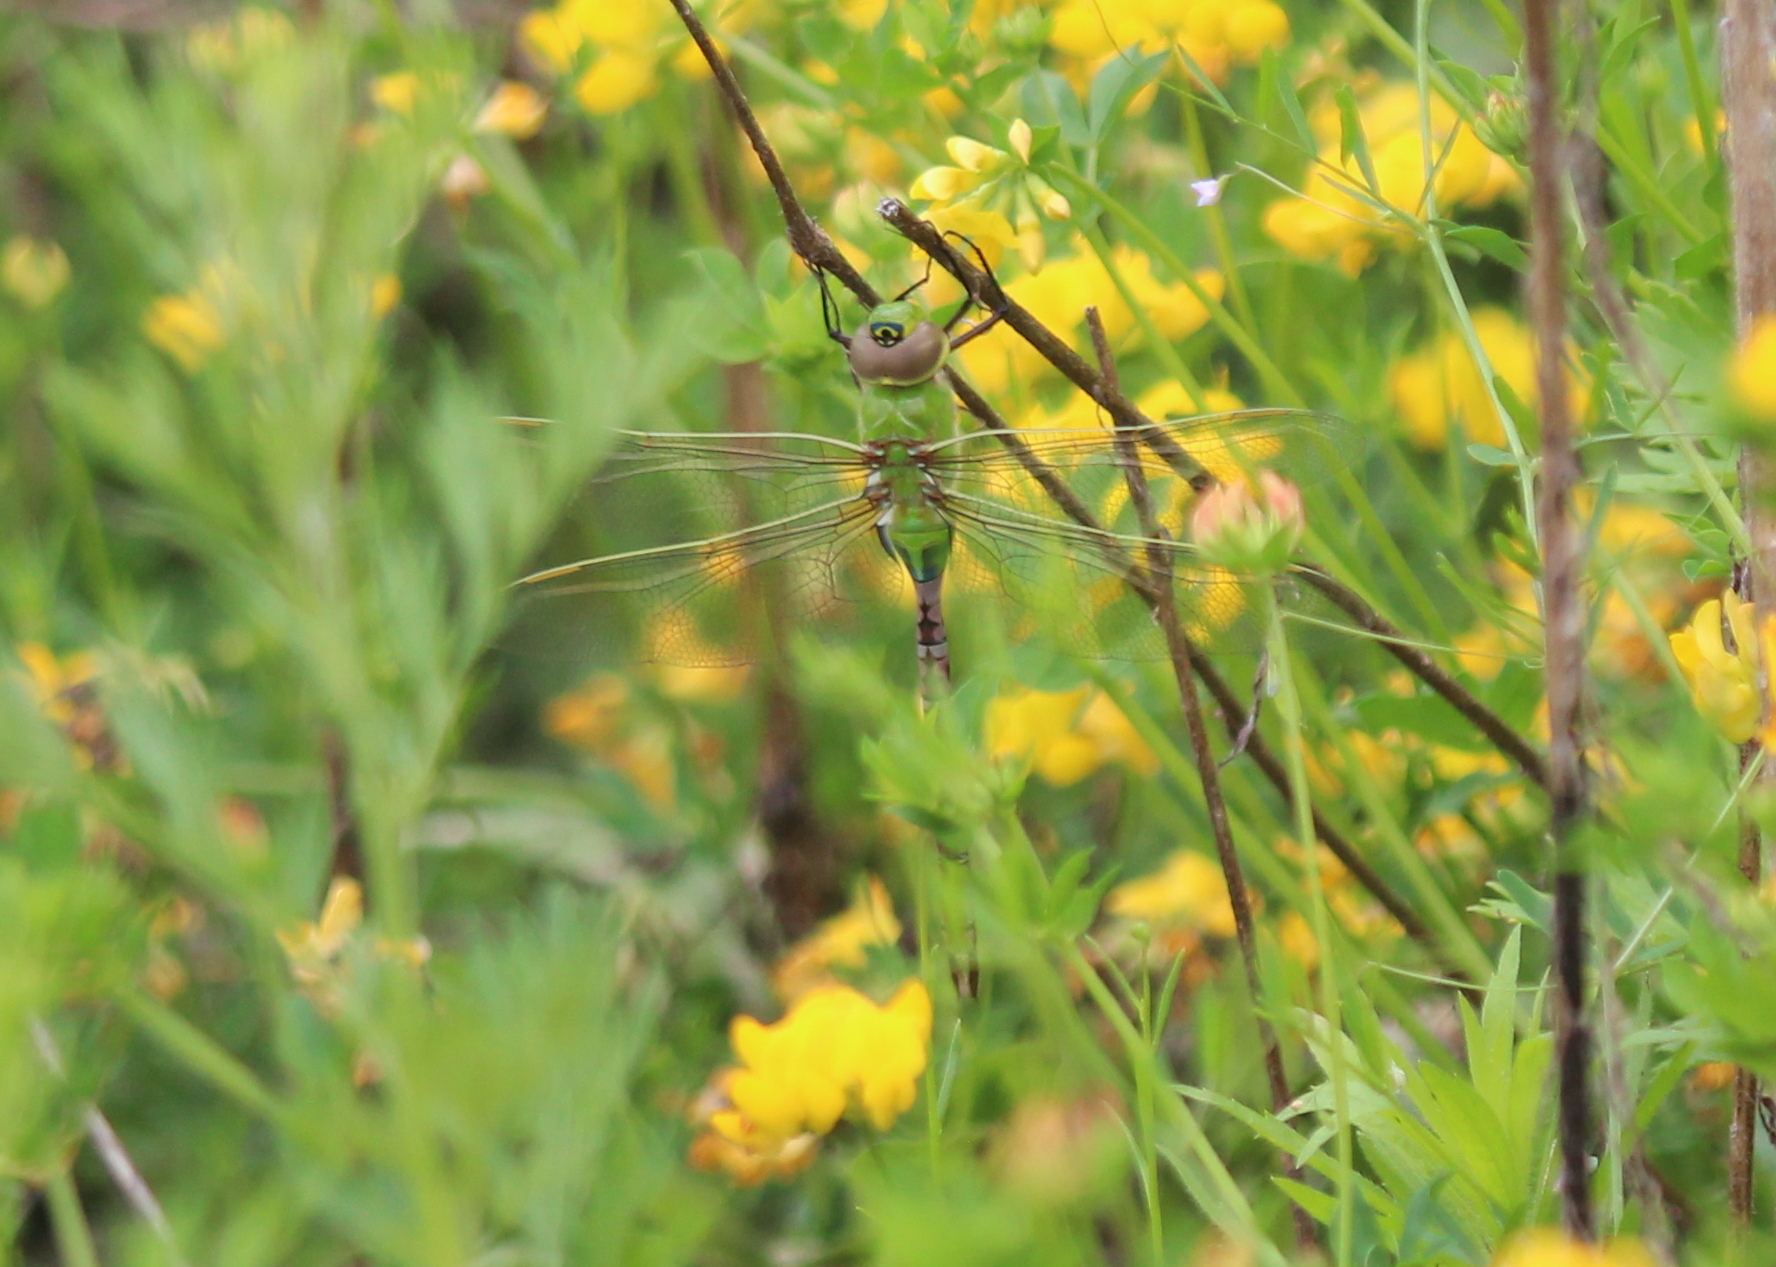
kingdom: Animalia
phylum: Arthropoda
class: Insecta
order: Odonata
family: Aeshnidae
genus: Anax
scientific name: Anax junius
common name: Common green darner
